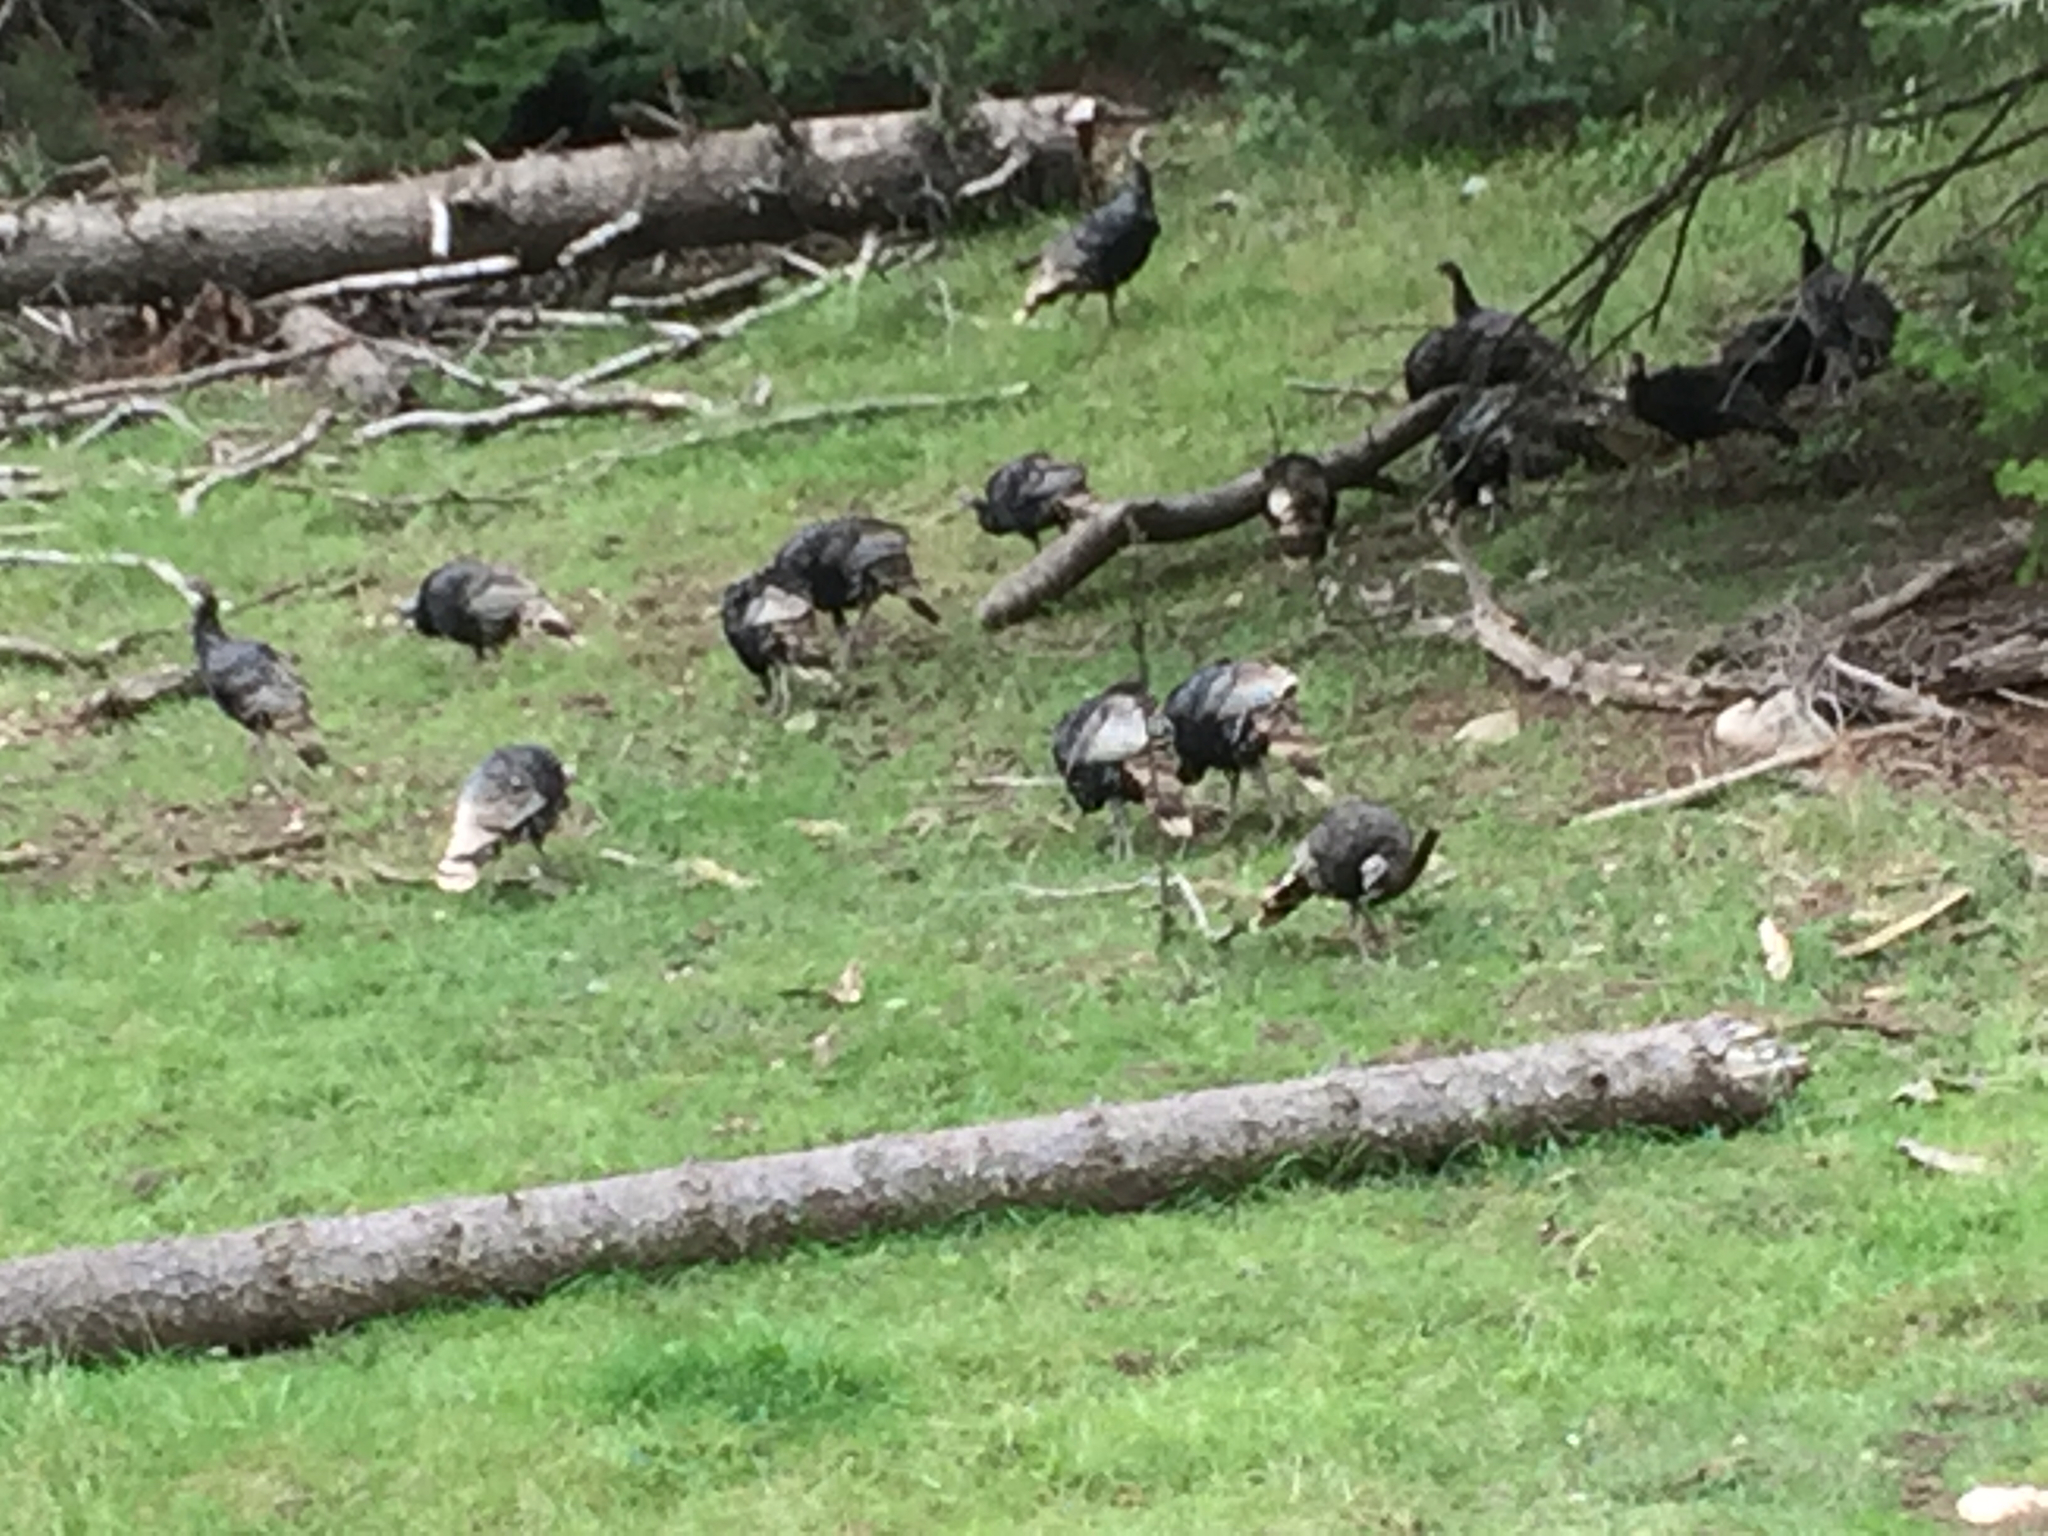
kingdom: Animalia
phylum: Chordata
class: Aves
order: Galliformes
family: Phasianidae
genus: Meleagris
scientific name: Meleagris gallopavo
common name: Wild turkey
